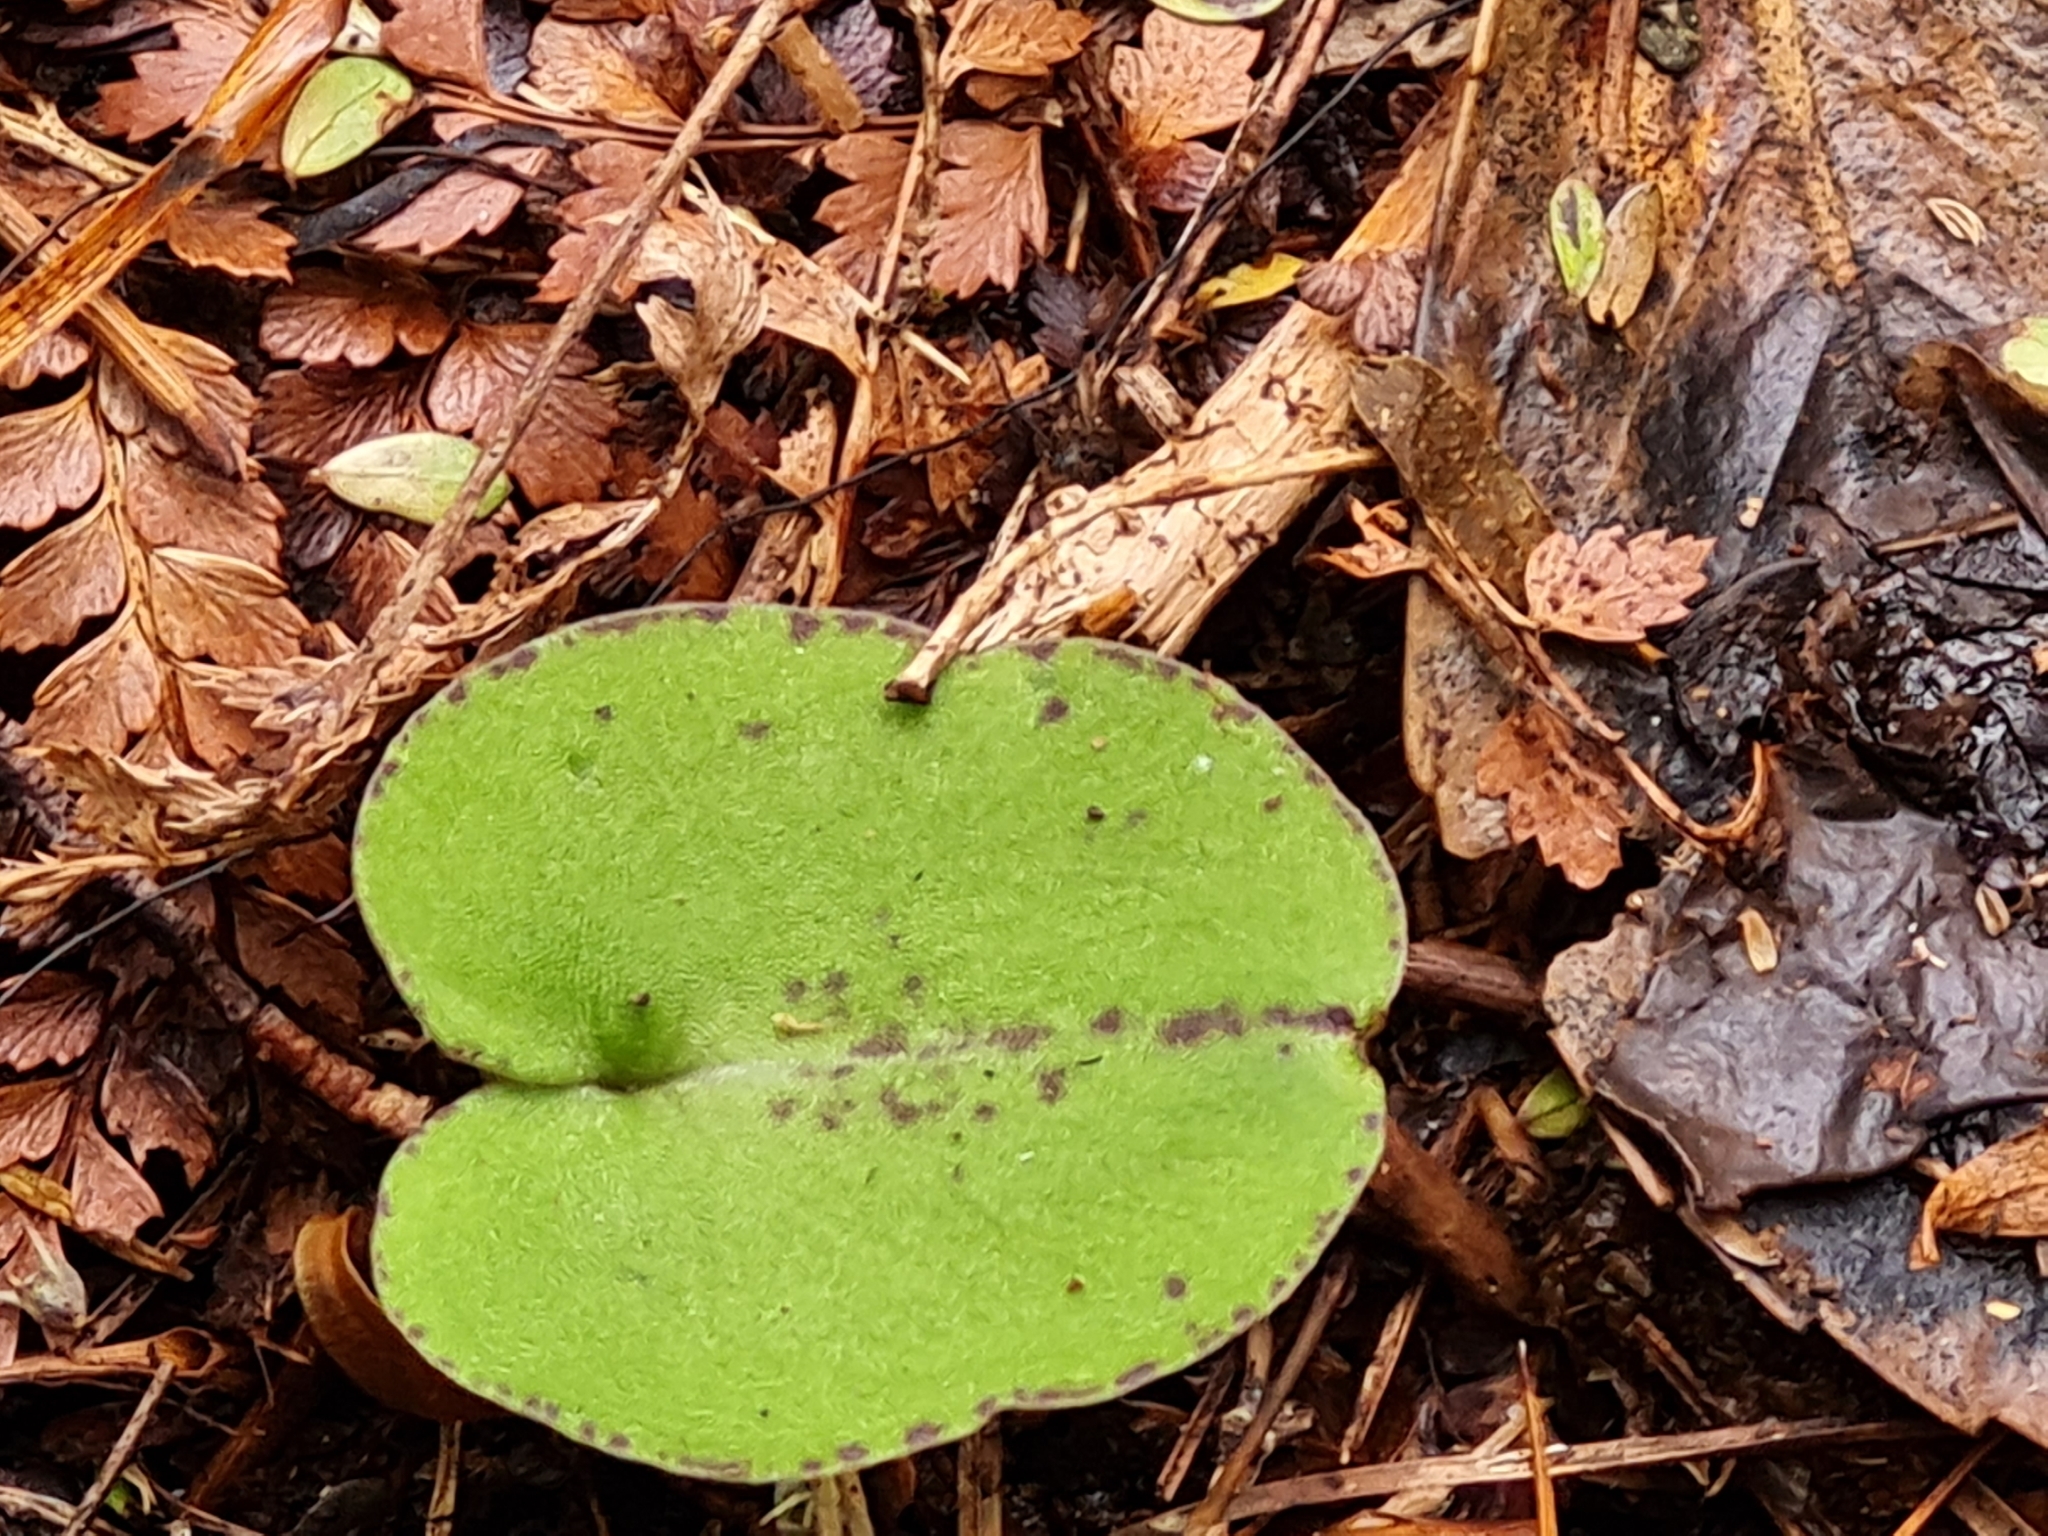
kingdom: Plantae
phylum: Tracheophyta
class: Liliopsida
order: Asparagales
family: Orchidaceae
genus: Corybas
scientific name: Corybas macranthus
